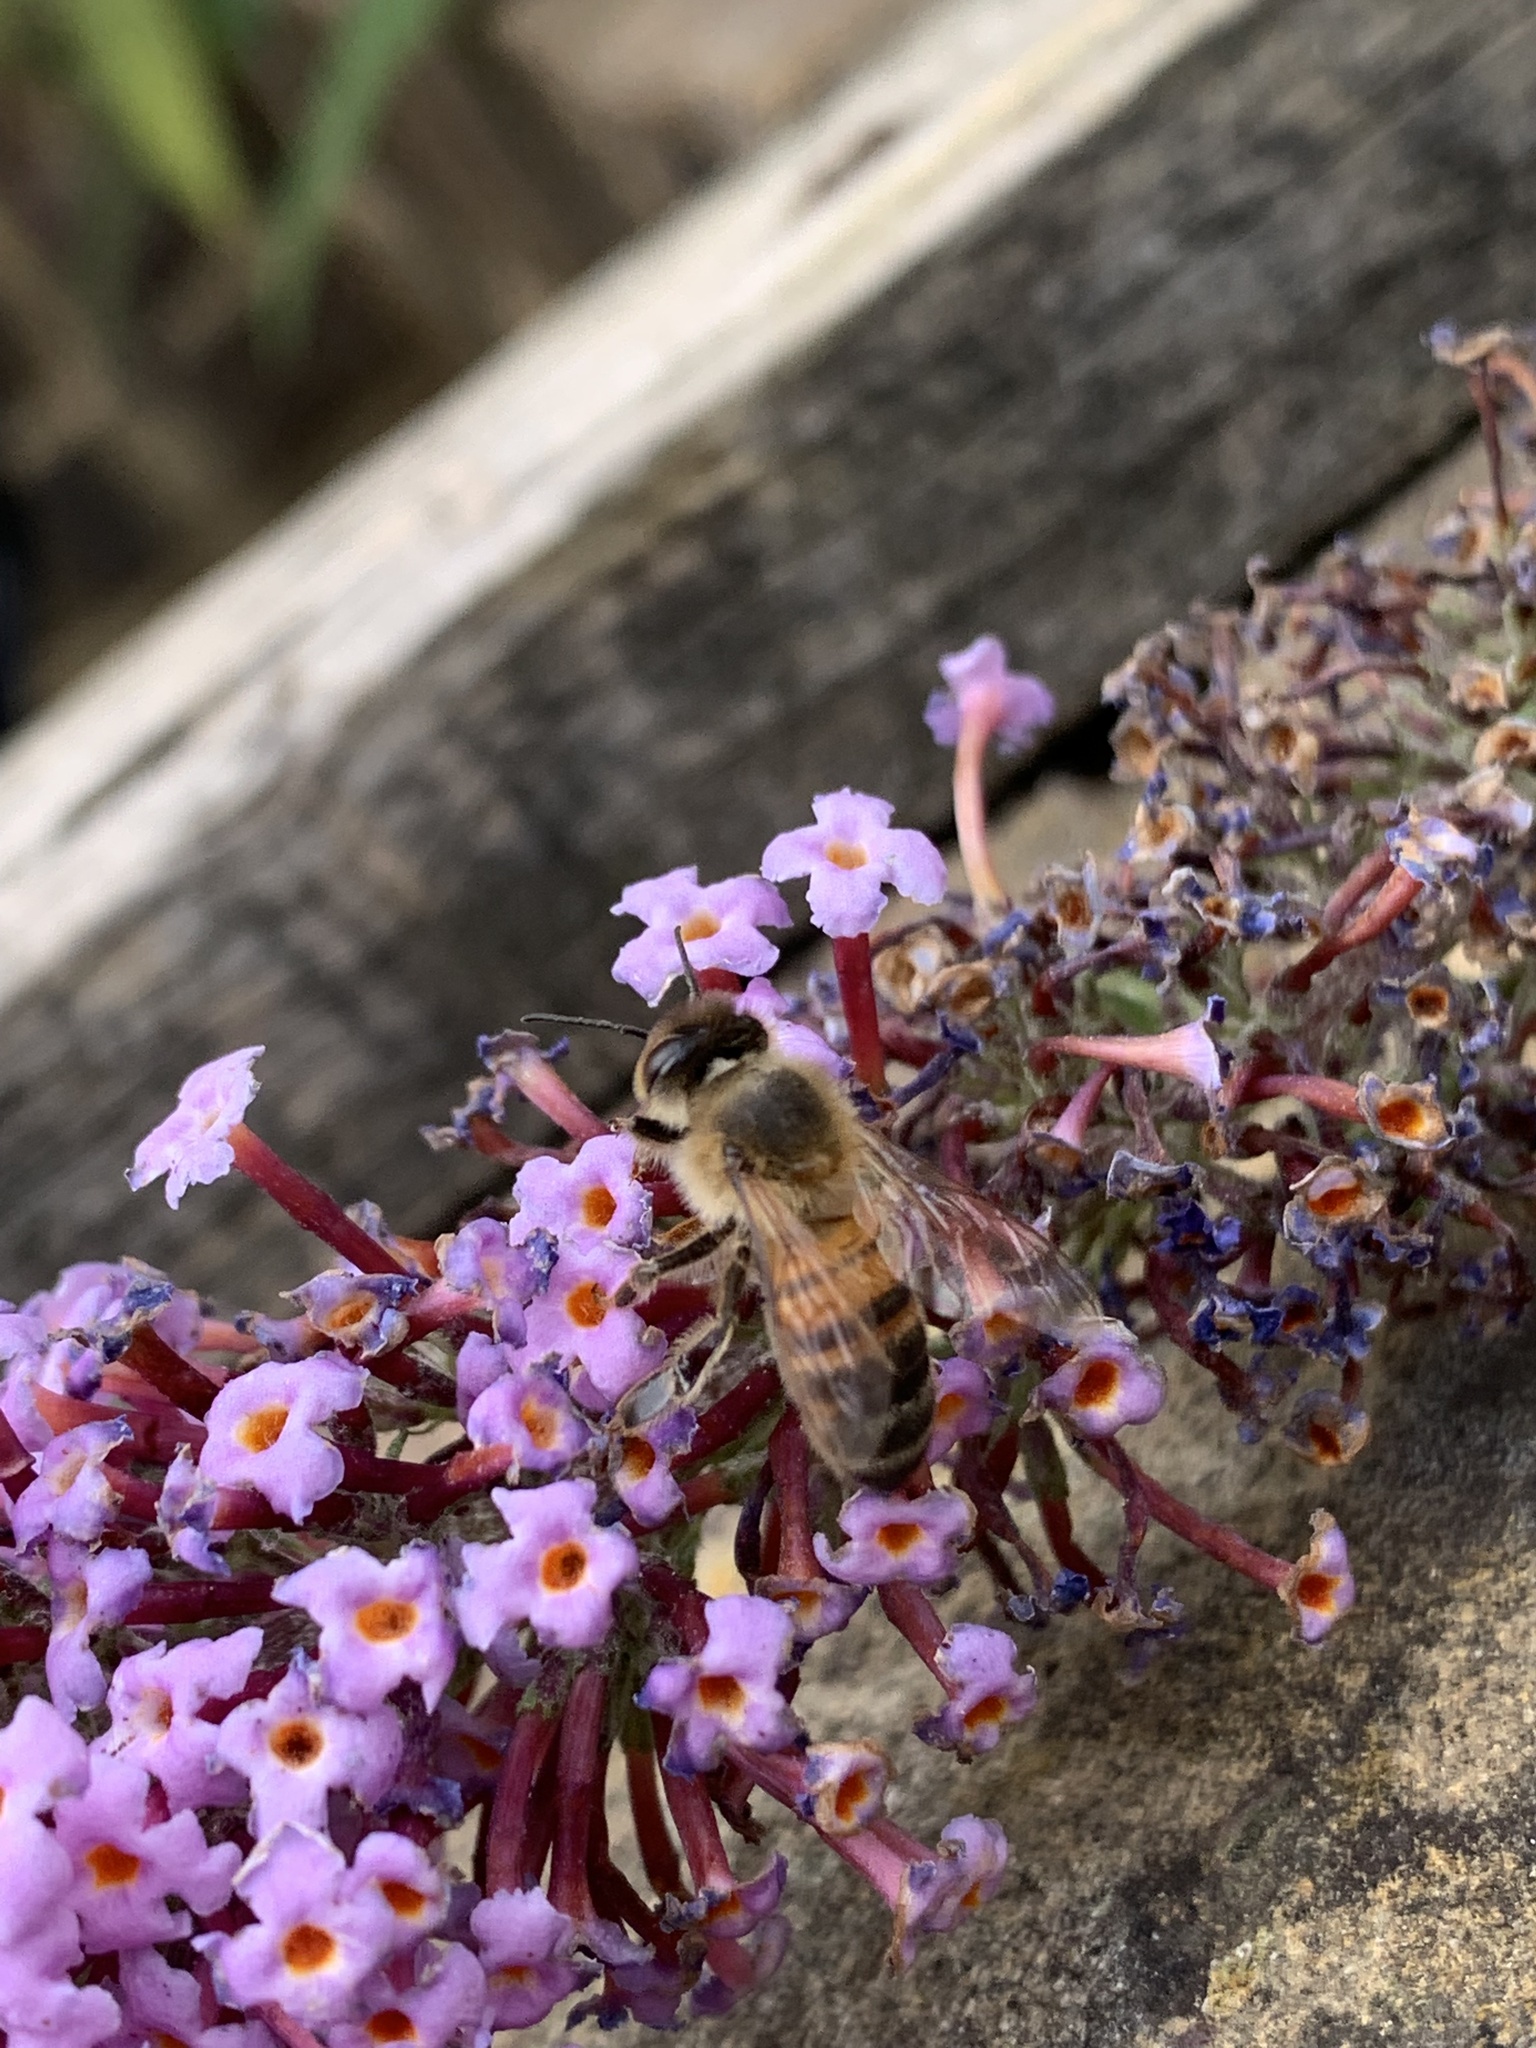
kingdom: Animalia
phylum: Arthropoda
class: Insecta
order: Hymenoptera
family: Apidae
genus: Apis
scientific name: Apis mellifera
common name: Honey bee
